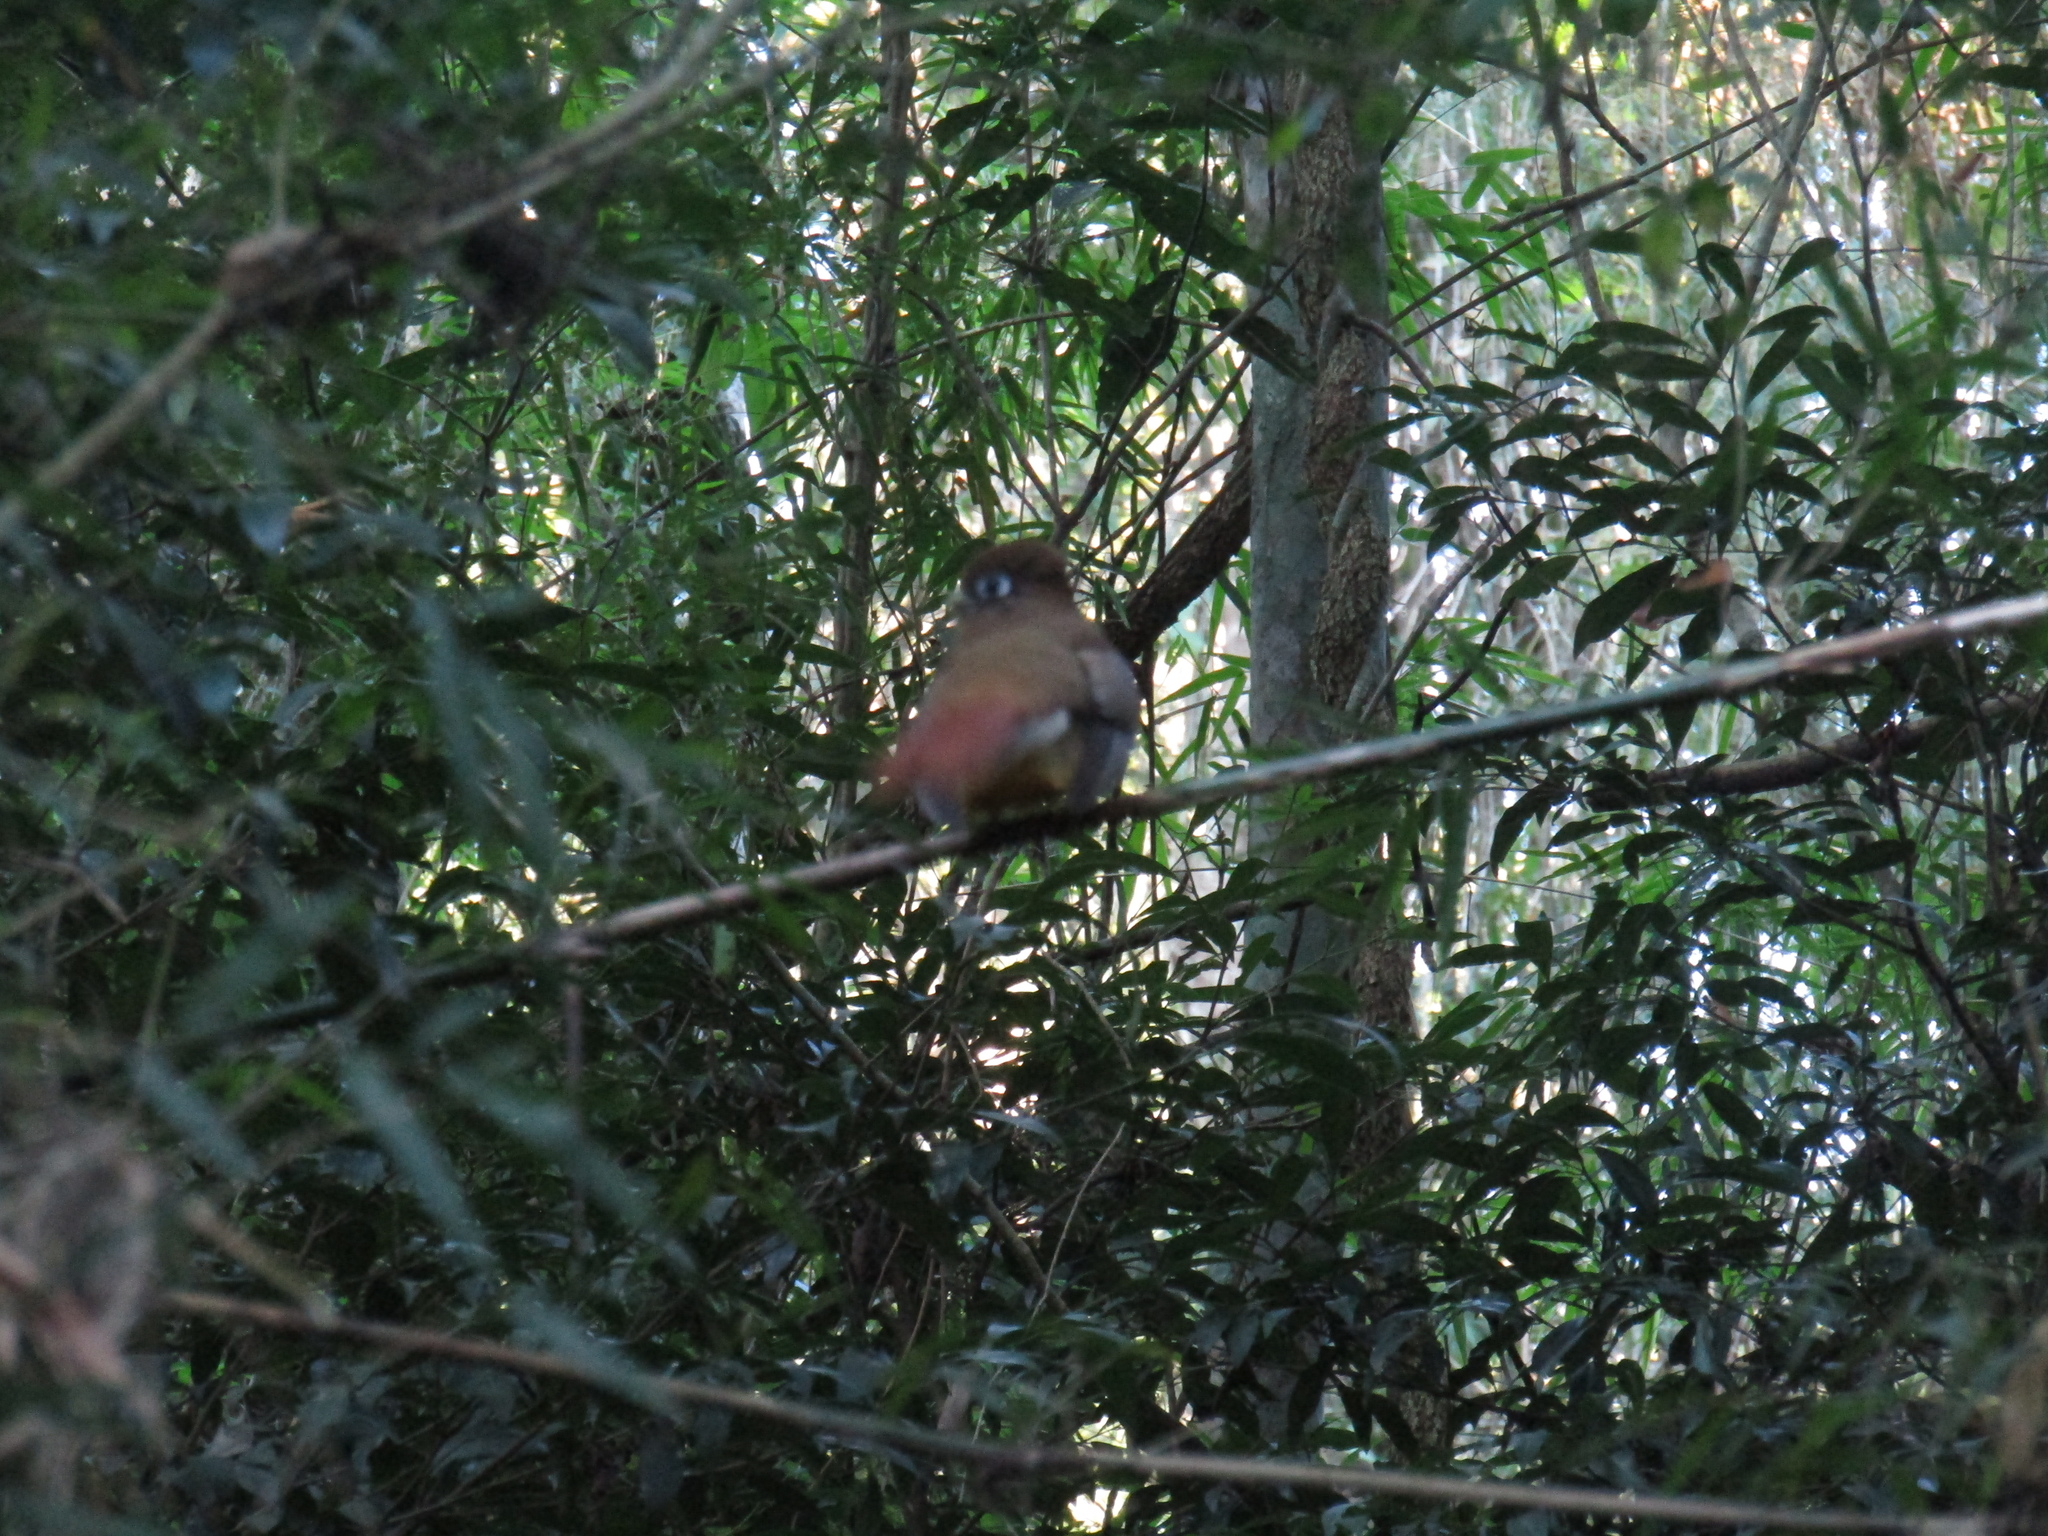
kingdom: Animalia
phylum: Chordata
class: Aves
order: Trogoniformes
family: Trogonidae
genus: Trogon
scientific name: Trogon rufus
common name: Black-throated trogon
